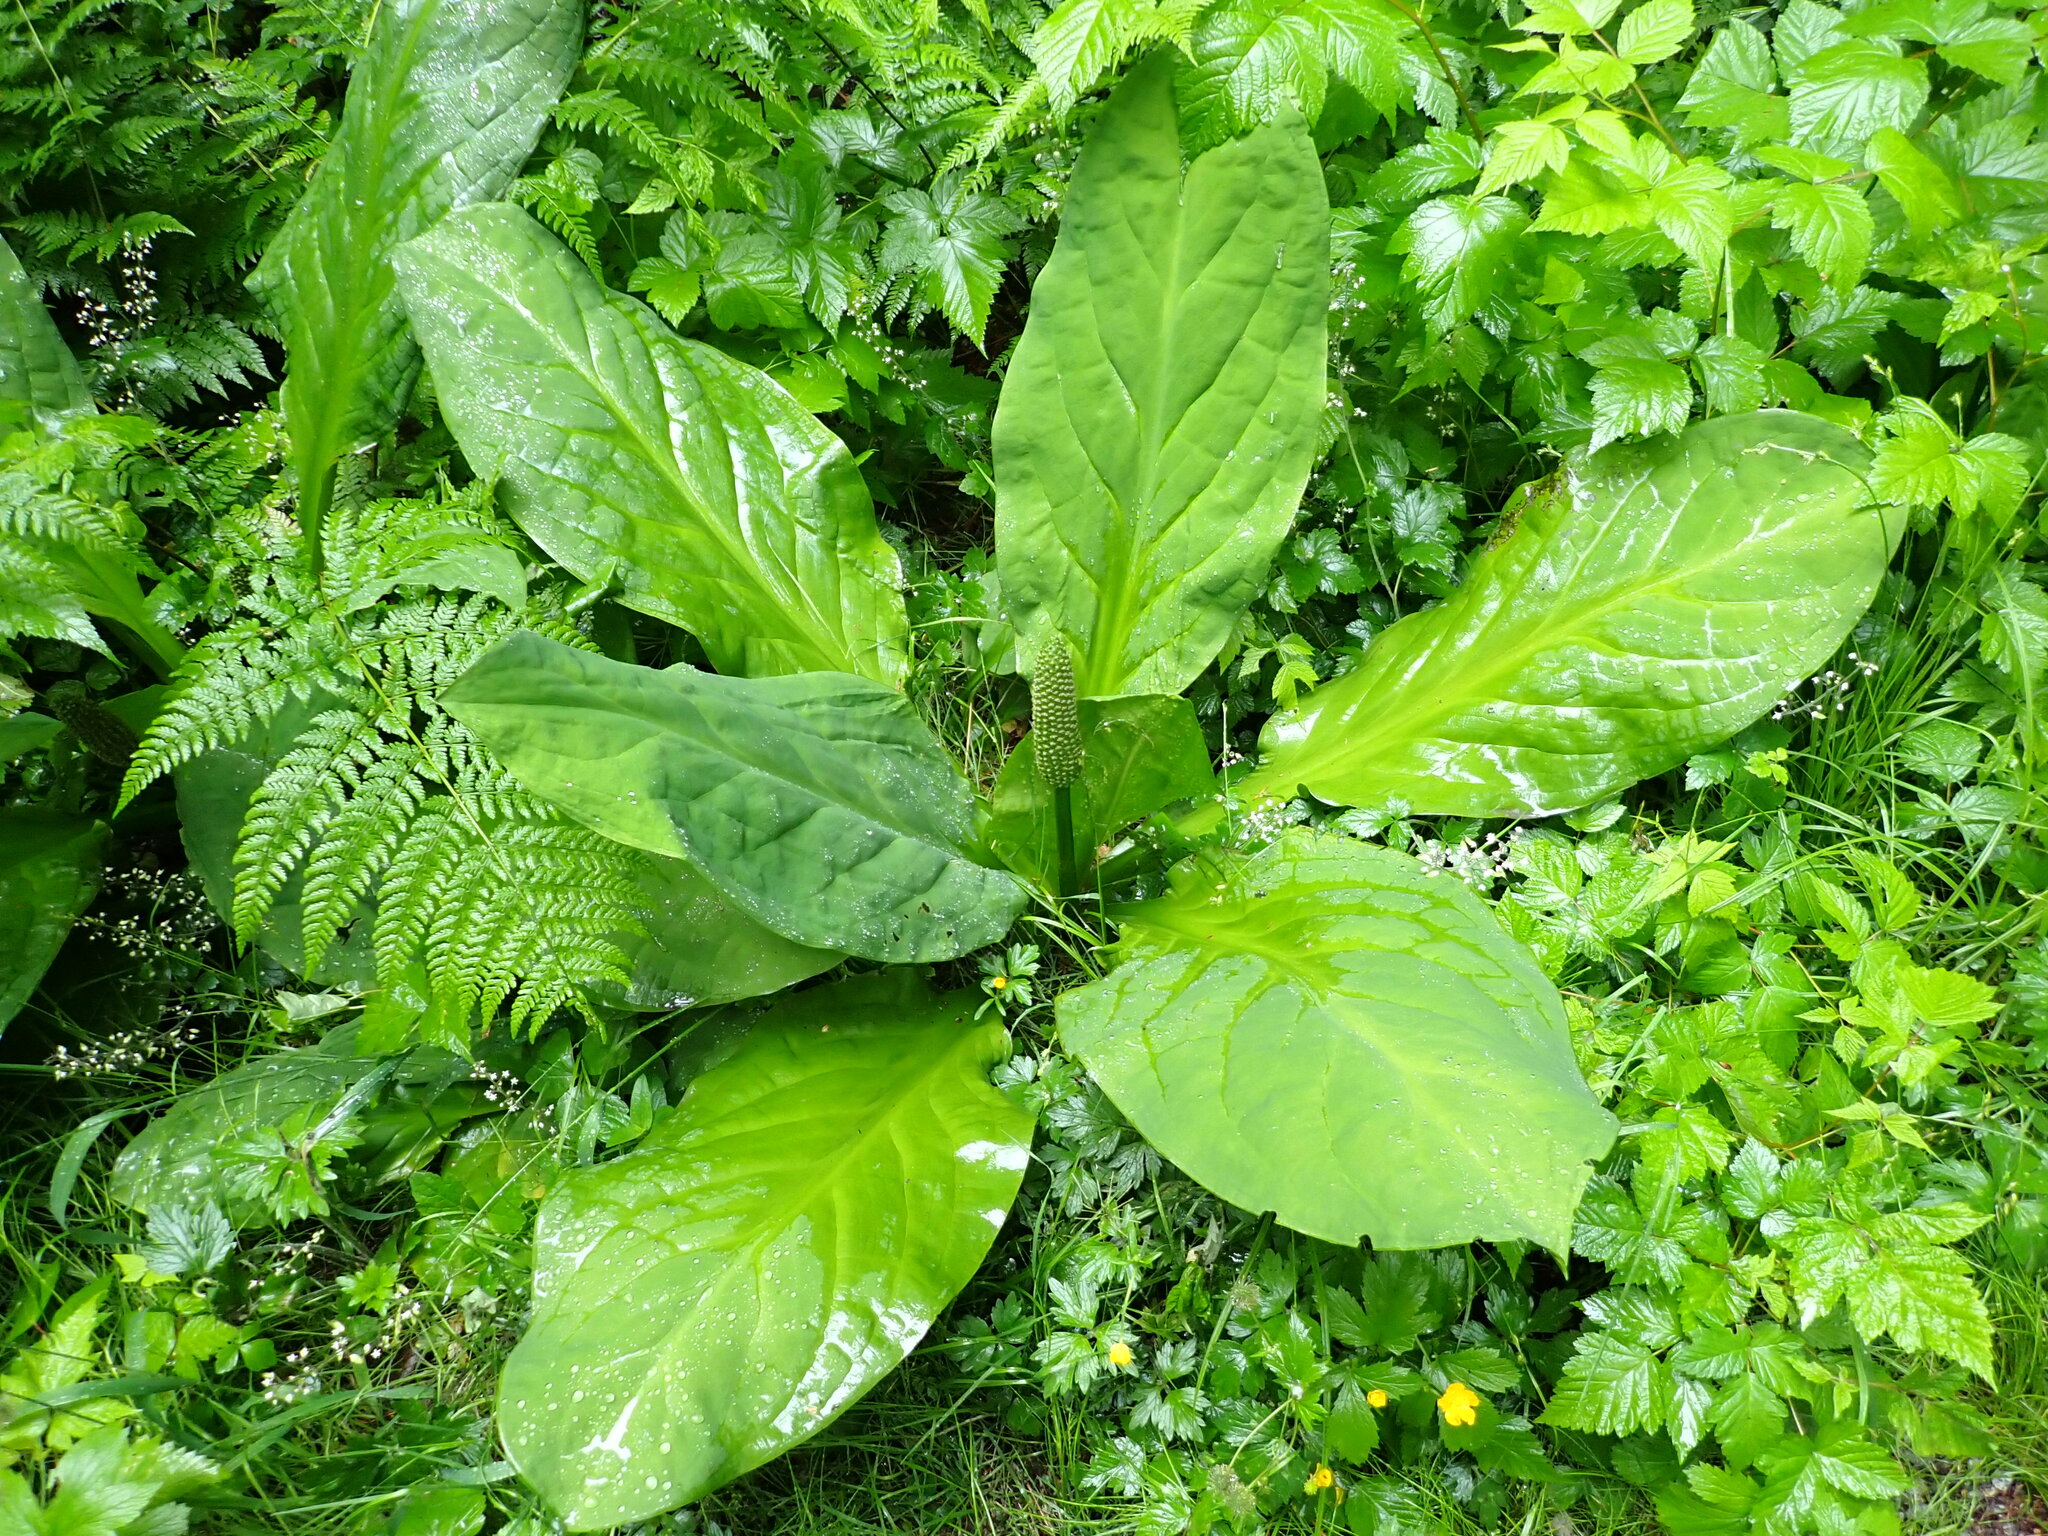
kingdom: Plantae
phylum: Tracheophyta
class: Liliopsida
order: Alismatales
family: Araceae
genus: Lysichiton
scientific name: Lysichiton americanus
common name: American skunk cabbage
